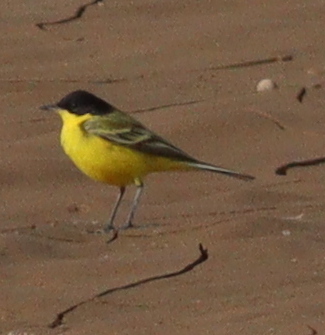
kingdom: Animalia
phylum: Chordata
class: Aves
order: Passeriformes
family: Motacillidae
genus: Motacilla
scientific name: Motacilla flava
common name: Western yellow wagtail
